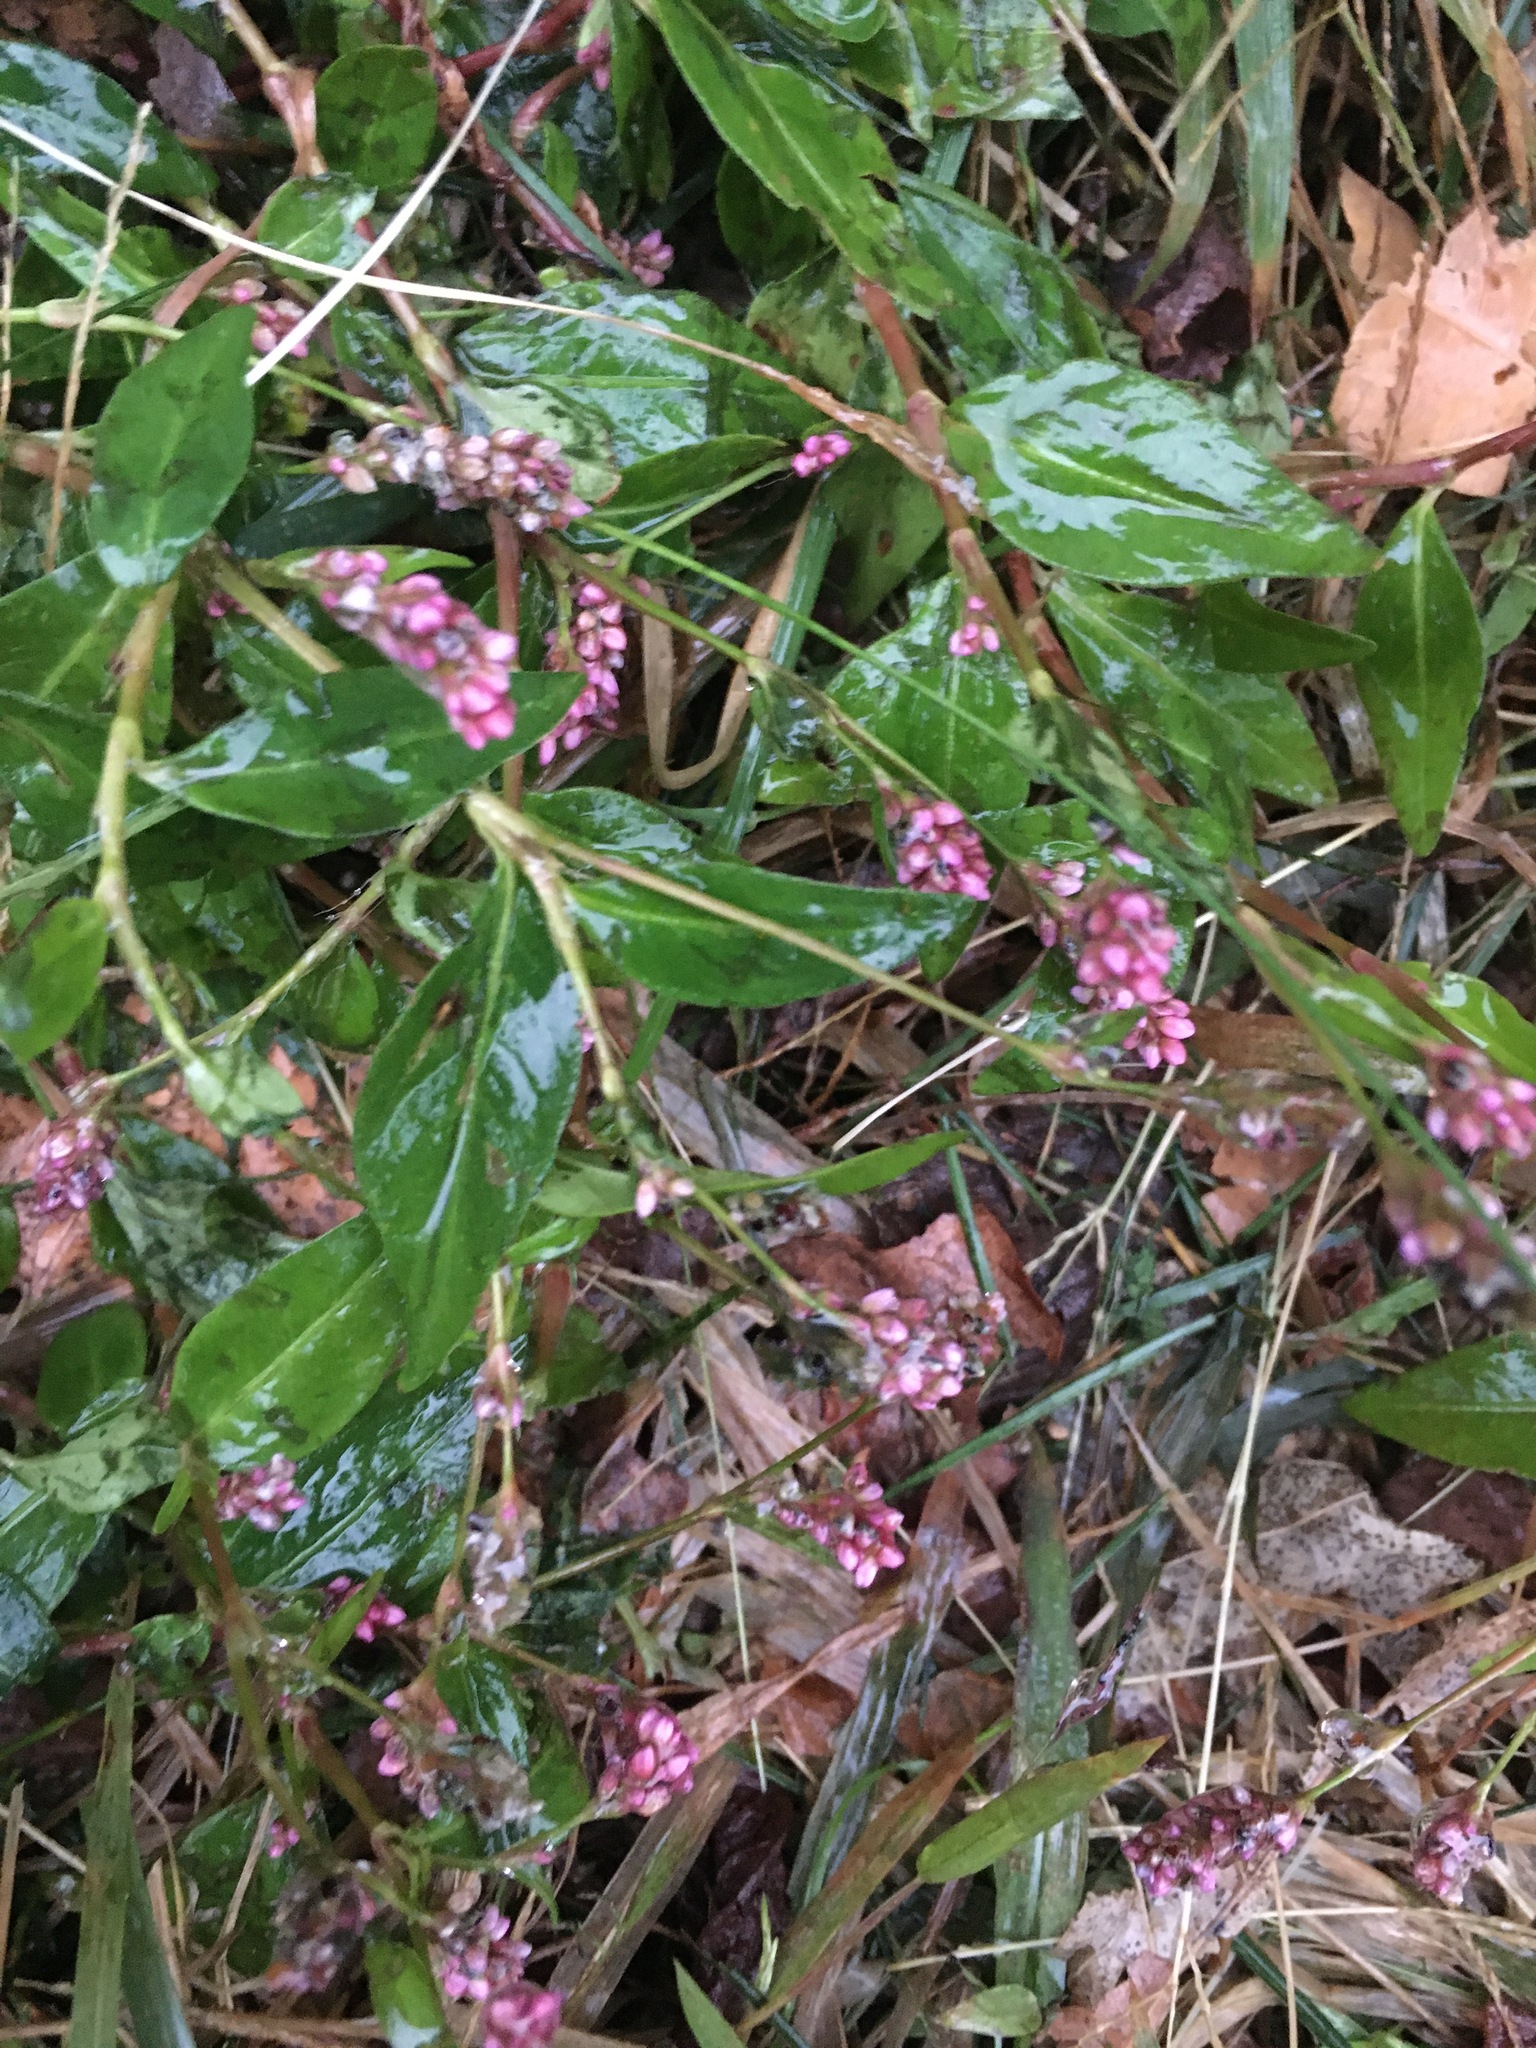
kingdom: Plantae
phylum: Tracheophyta
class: Magnoliopsida
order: Caryophyllales
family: Polygonaceae
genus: Persicaria
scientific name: Persicaria longiseta
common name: Bristly lady's-thumb
